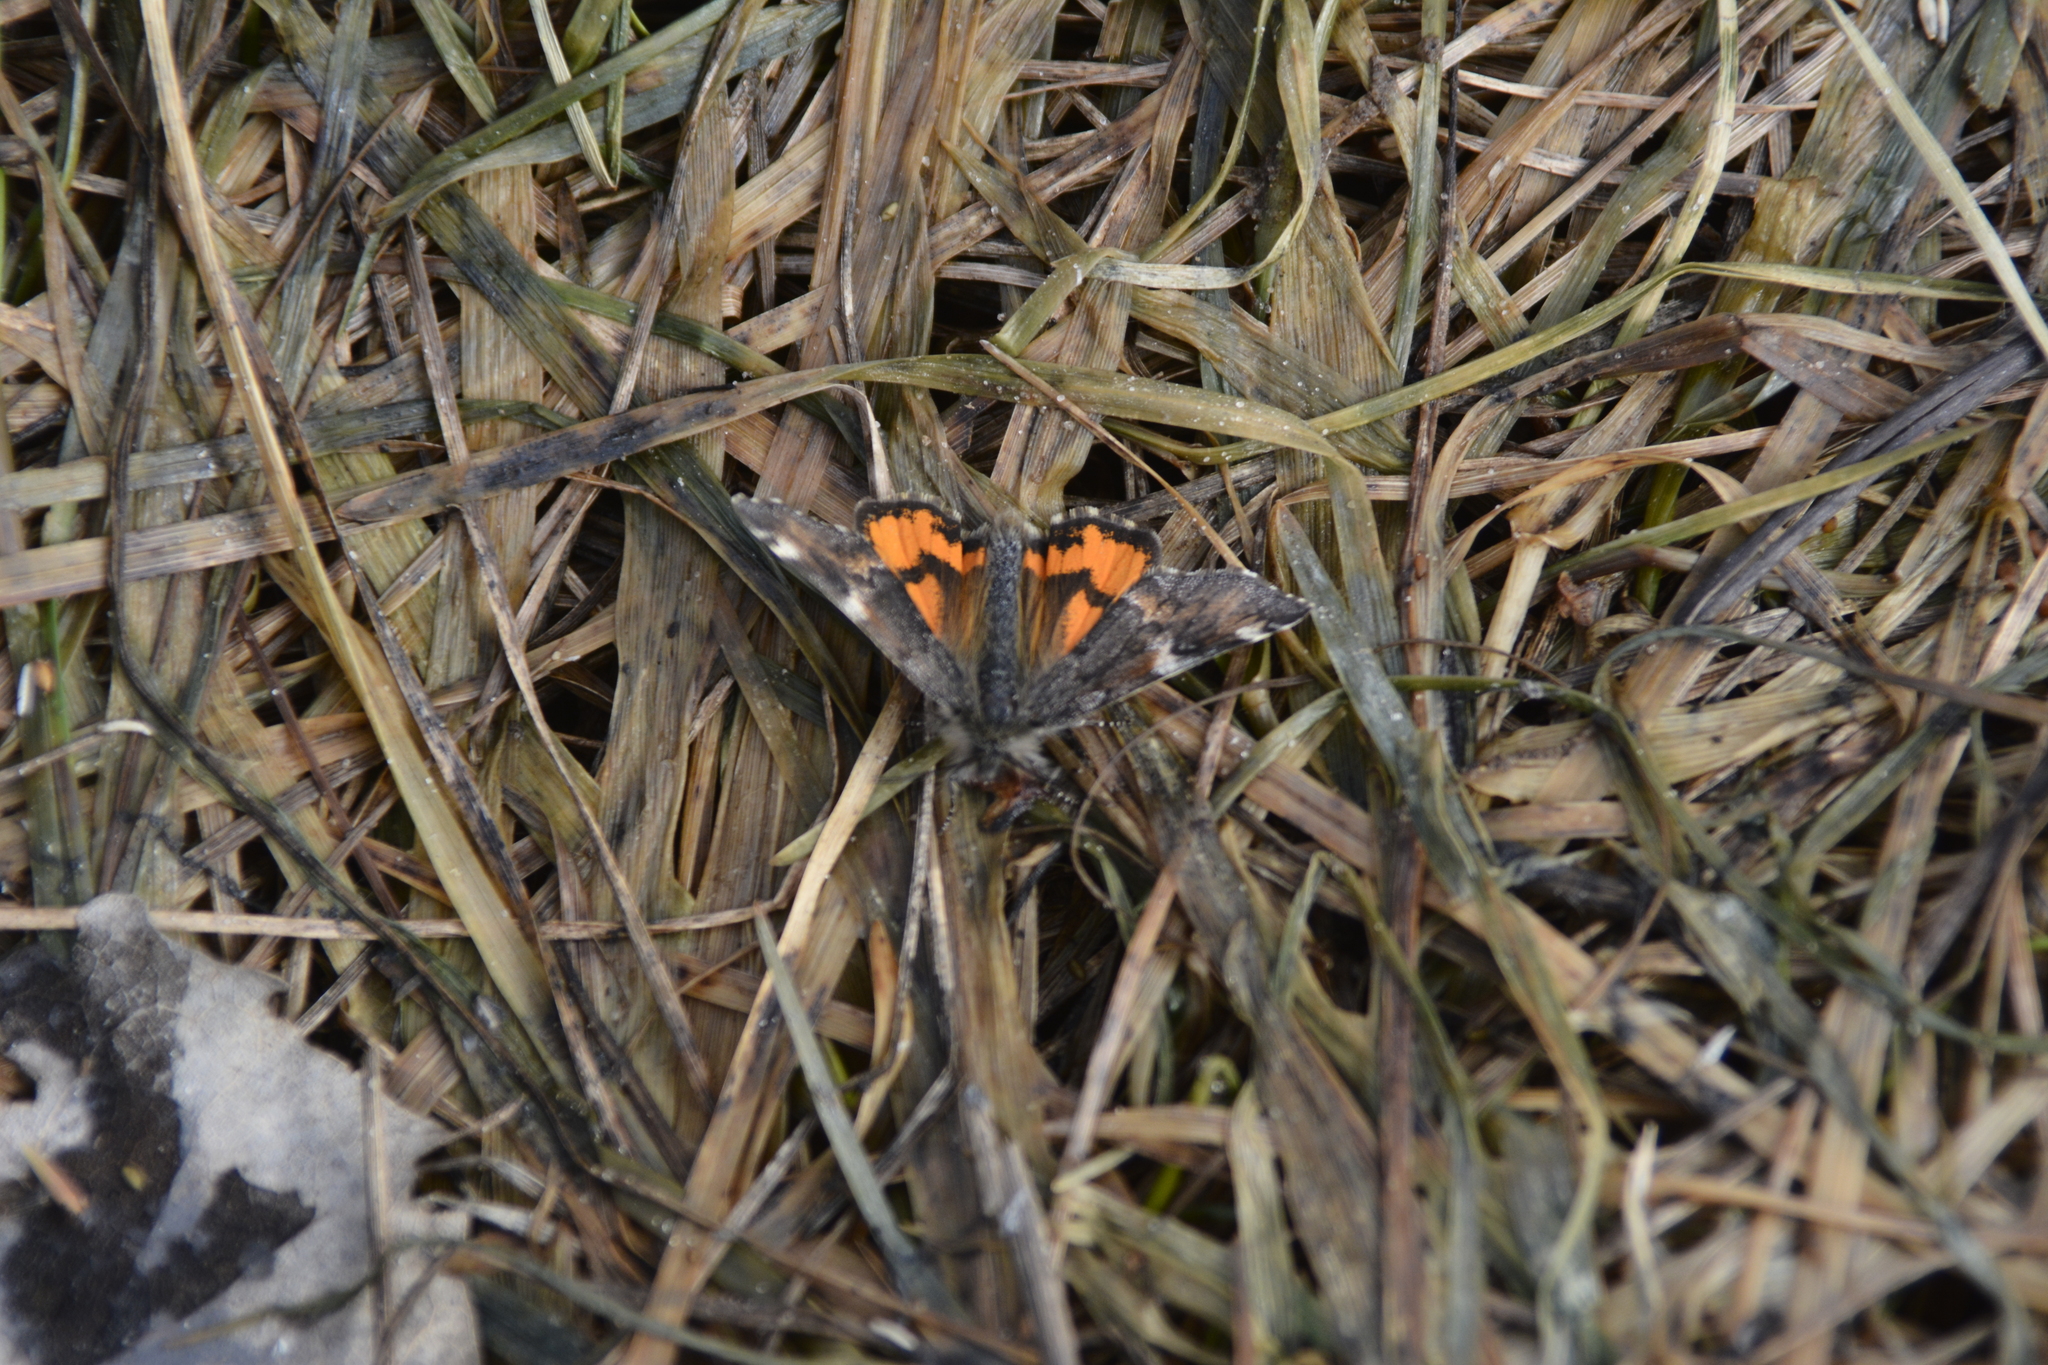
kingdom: Animalia
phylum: Arthropoda
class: Insecta
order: Lepidoptera
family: Geometridae
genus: Archiearis
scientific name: Archiearis parthenias
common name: Orange underwing
